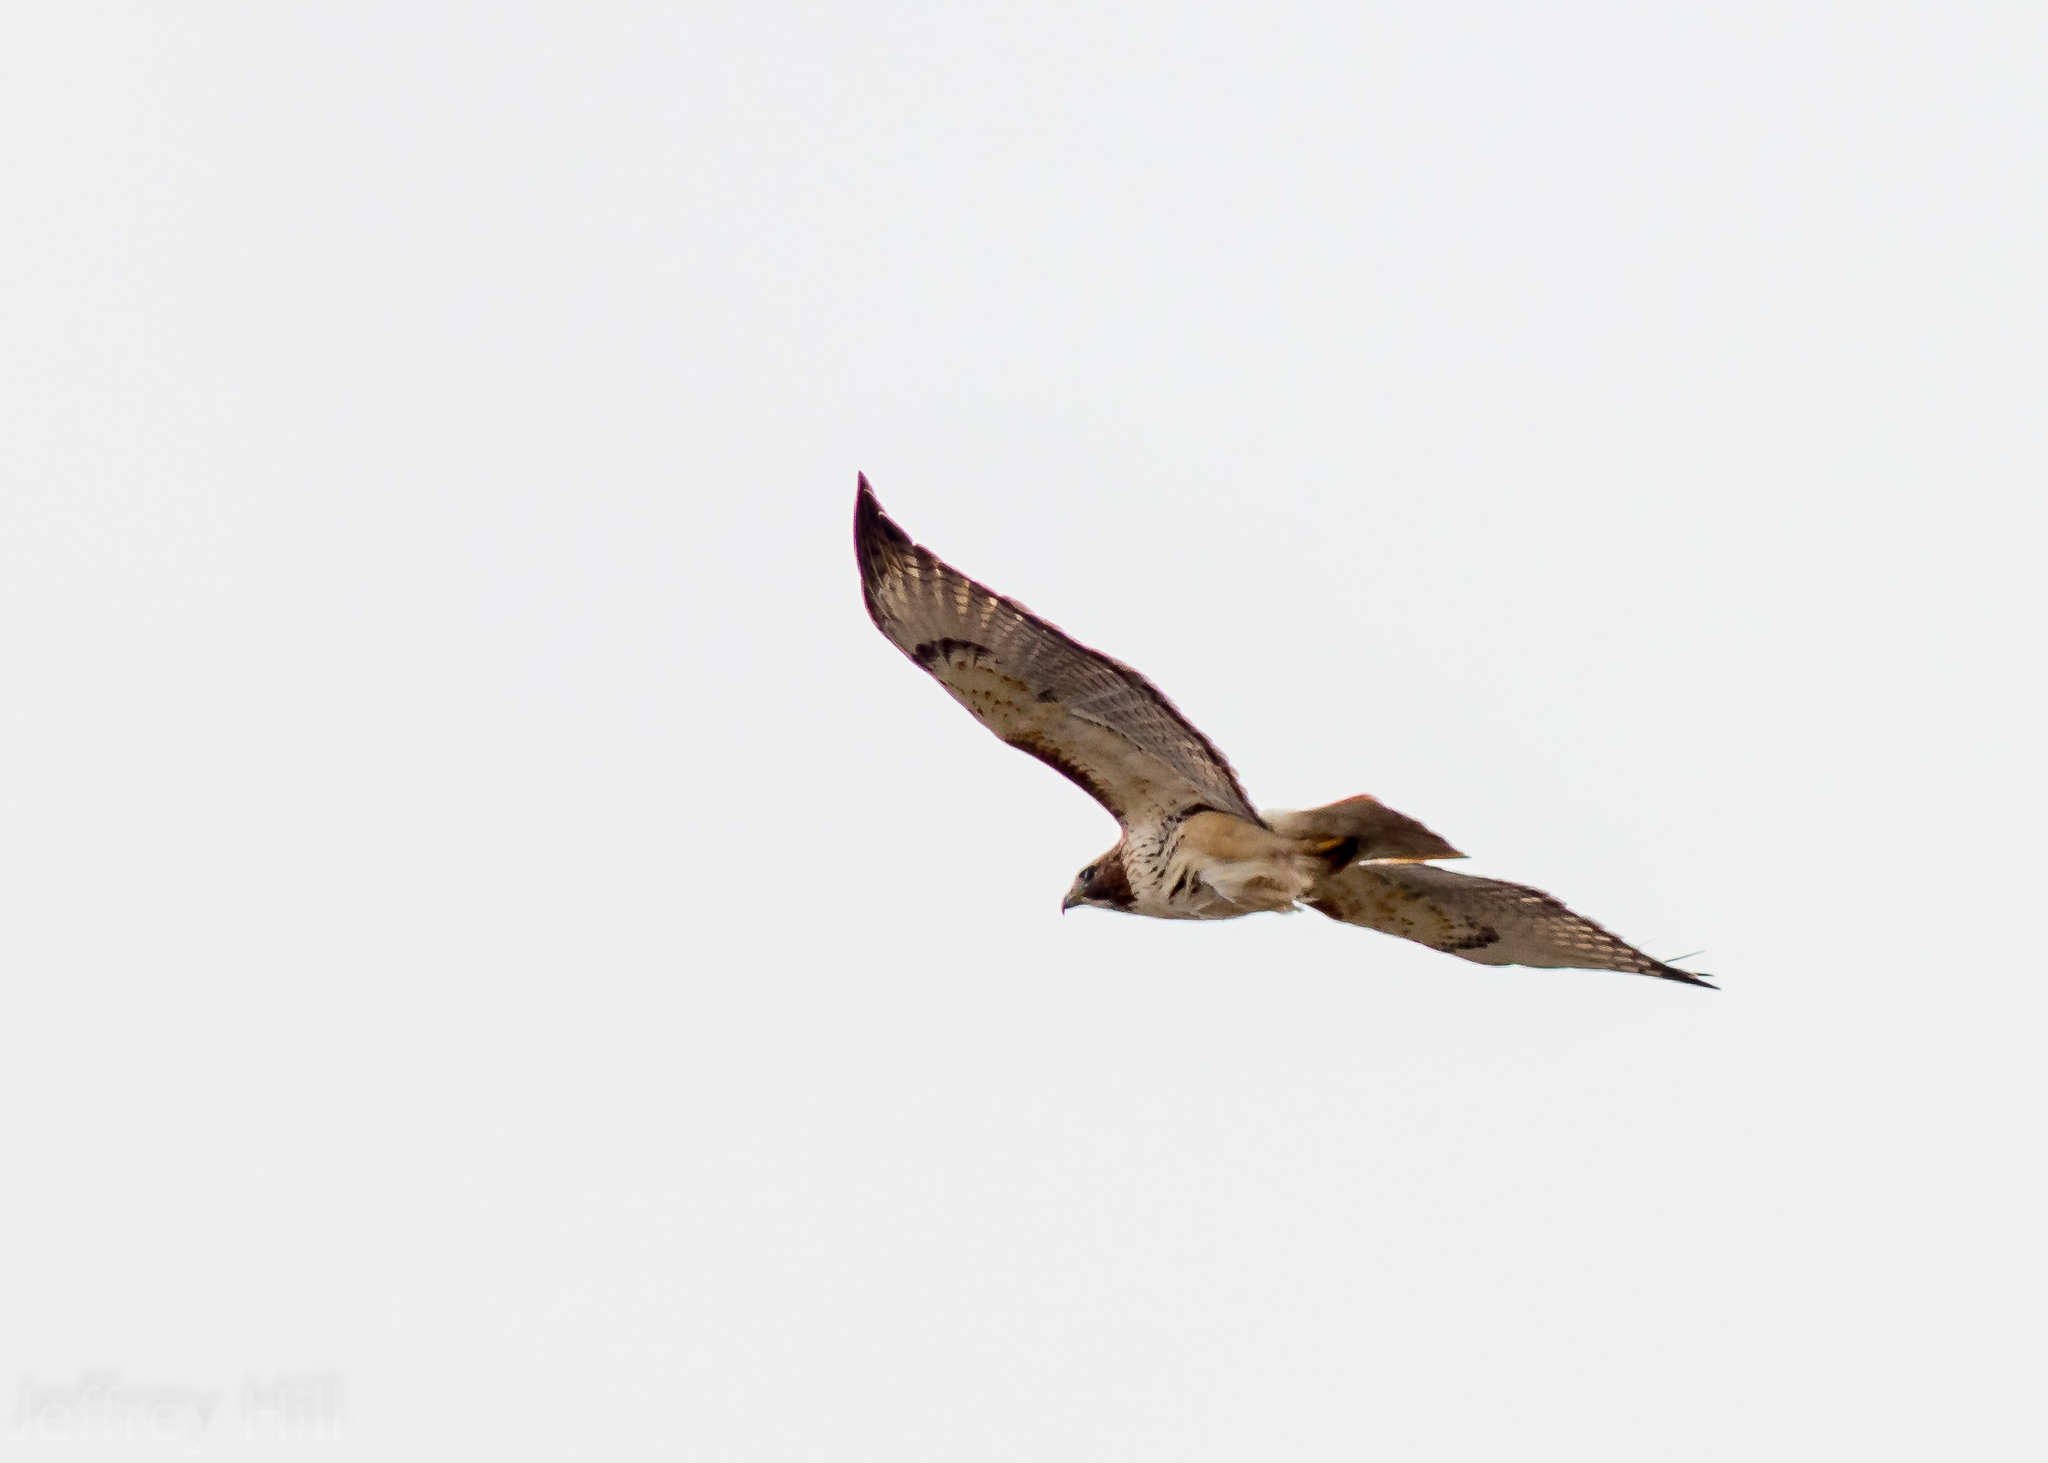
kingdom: Animalia
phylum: Chordata
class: Aves
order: Accipitriformes
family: Accipitridae
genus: Buteo
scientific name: Buteo jamaicensis
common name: Red-tailed hawk
